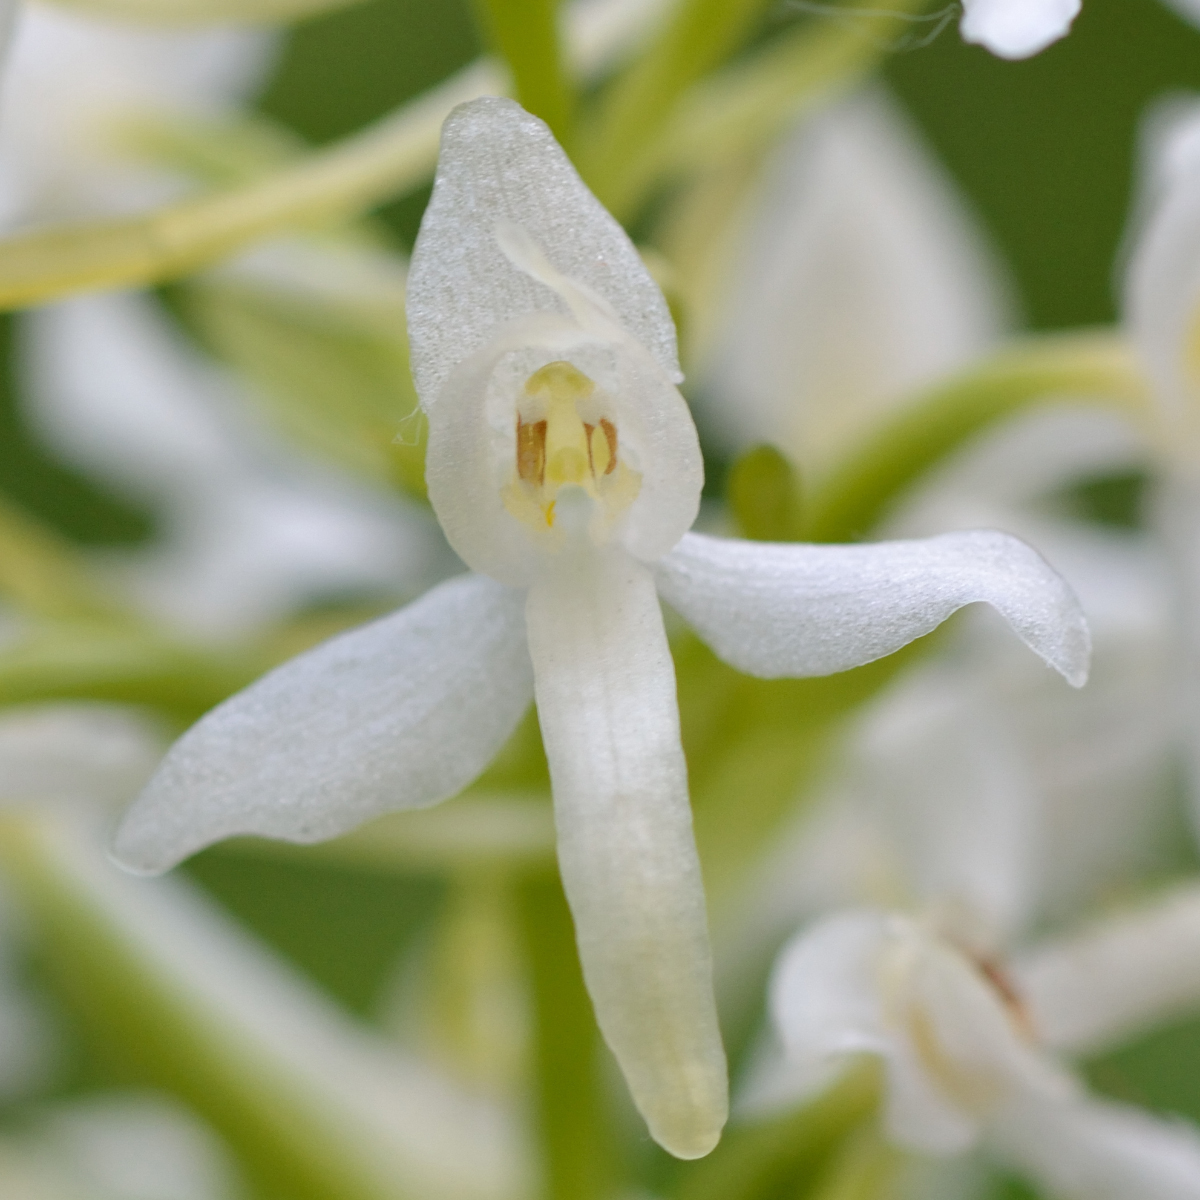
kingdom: Plantae
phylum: Tracheophyta
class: Liliopsida
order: Asparagales
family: Orchidaceae
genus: Platanthera
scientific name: Platanthera bifolia
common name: Lesser butterfly-orchid
